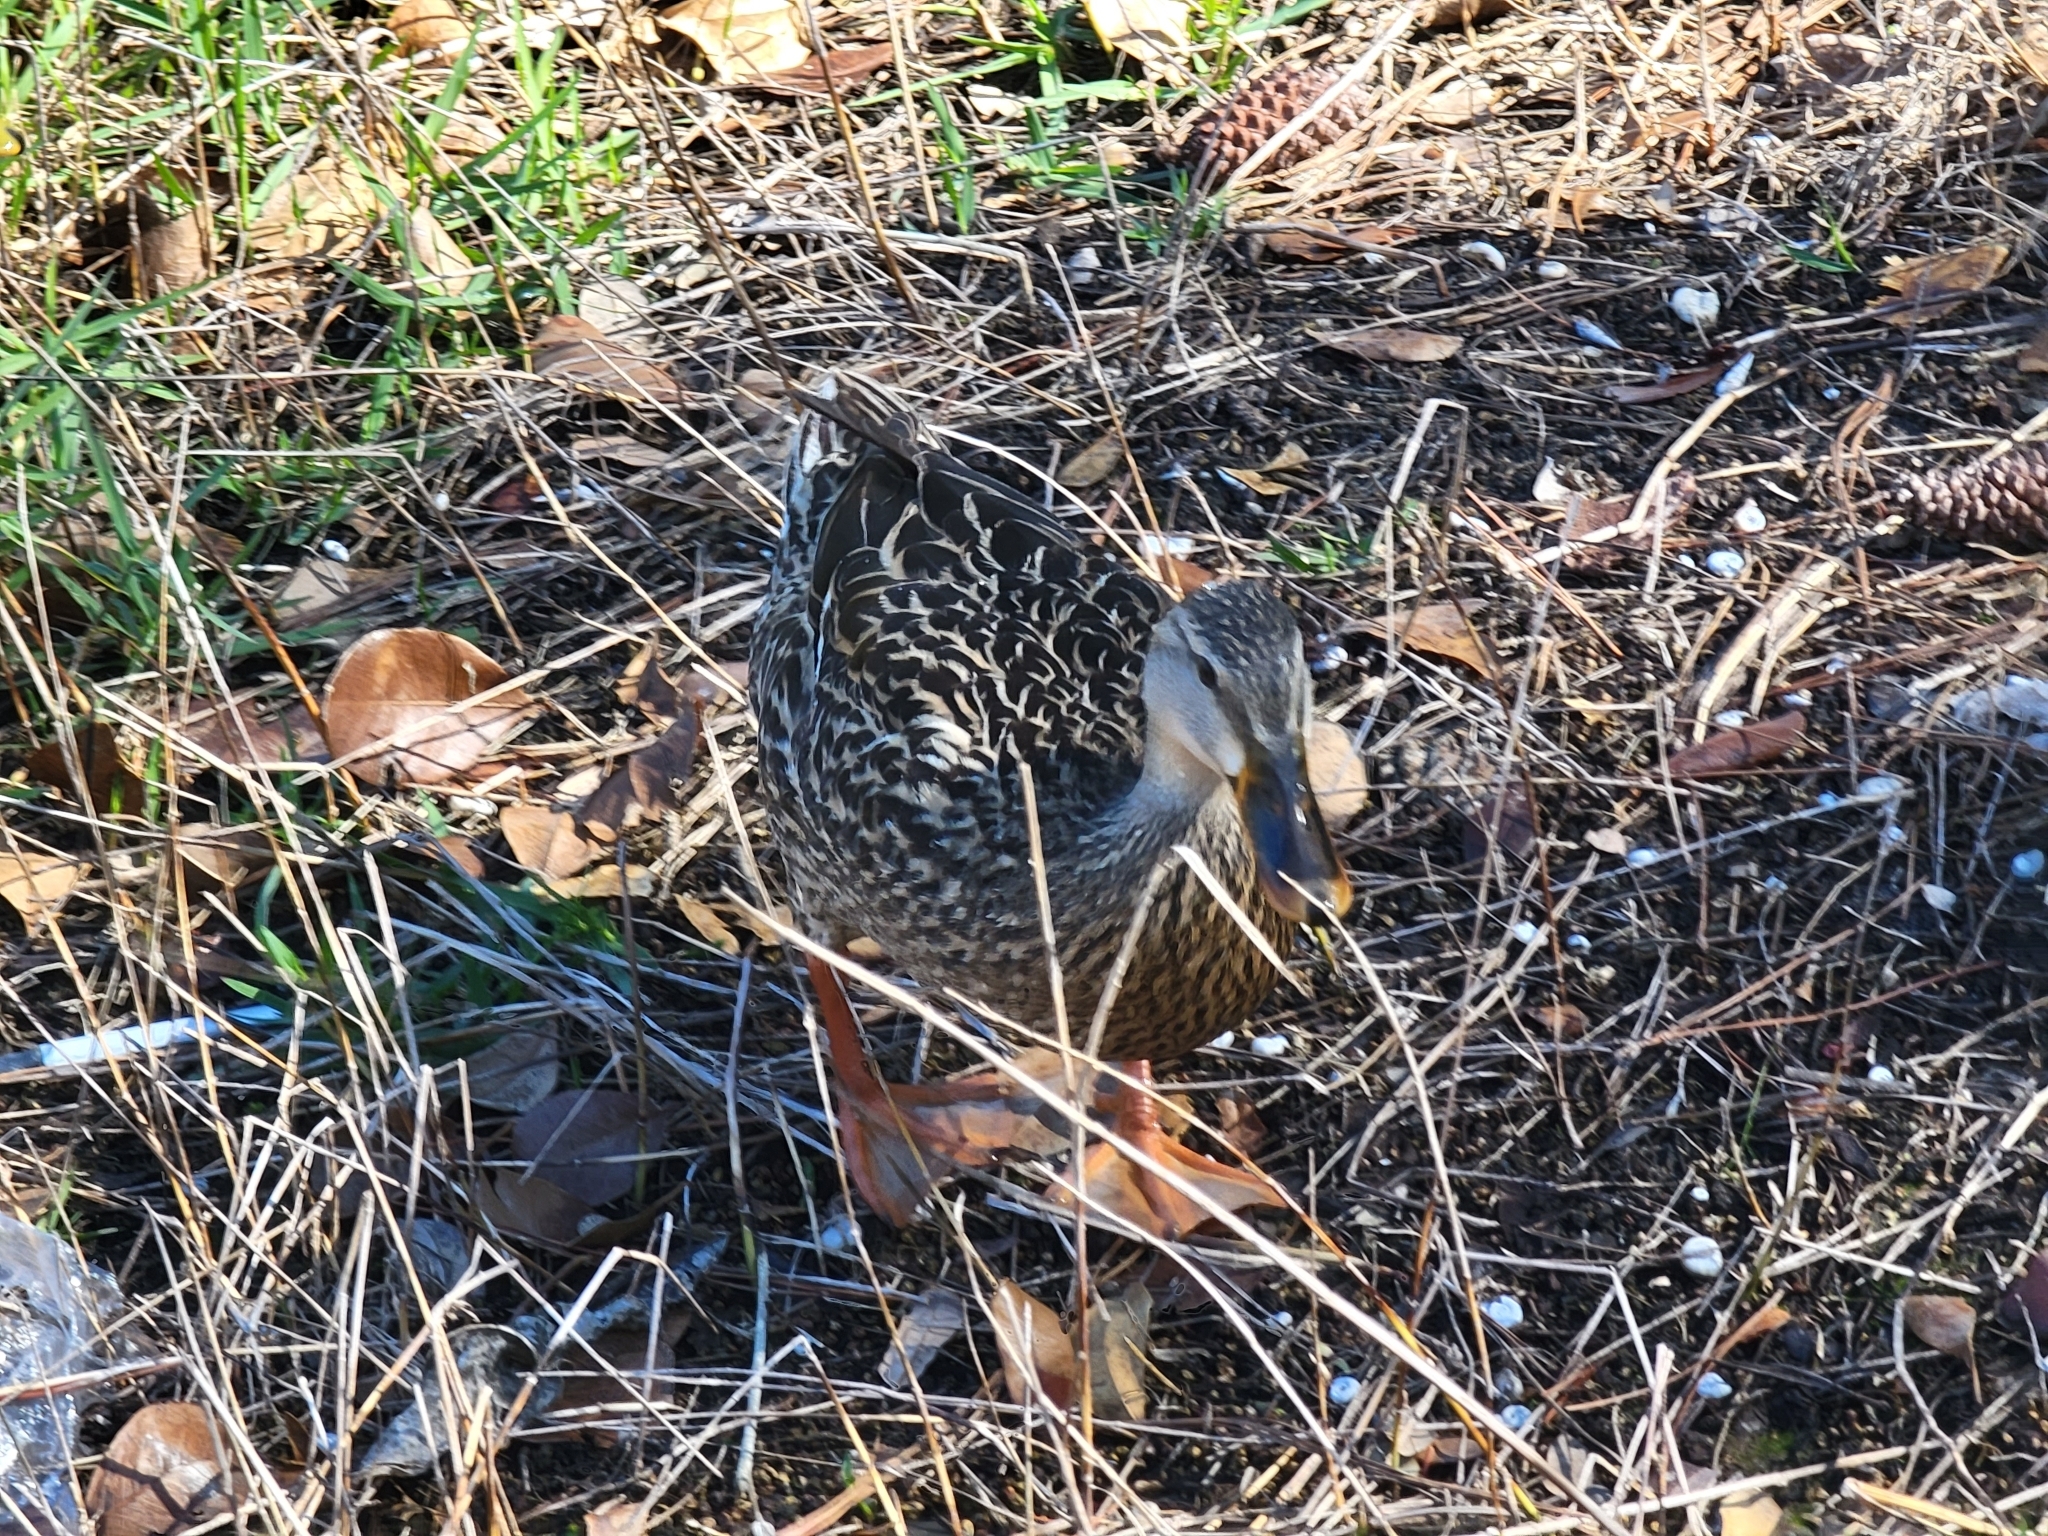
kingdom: Animalia
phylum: Chordata
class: Aves
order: Anseriformes
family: Anatidae
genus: Anas
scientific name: Anas
